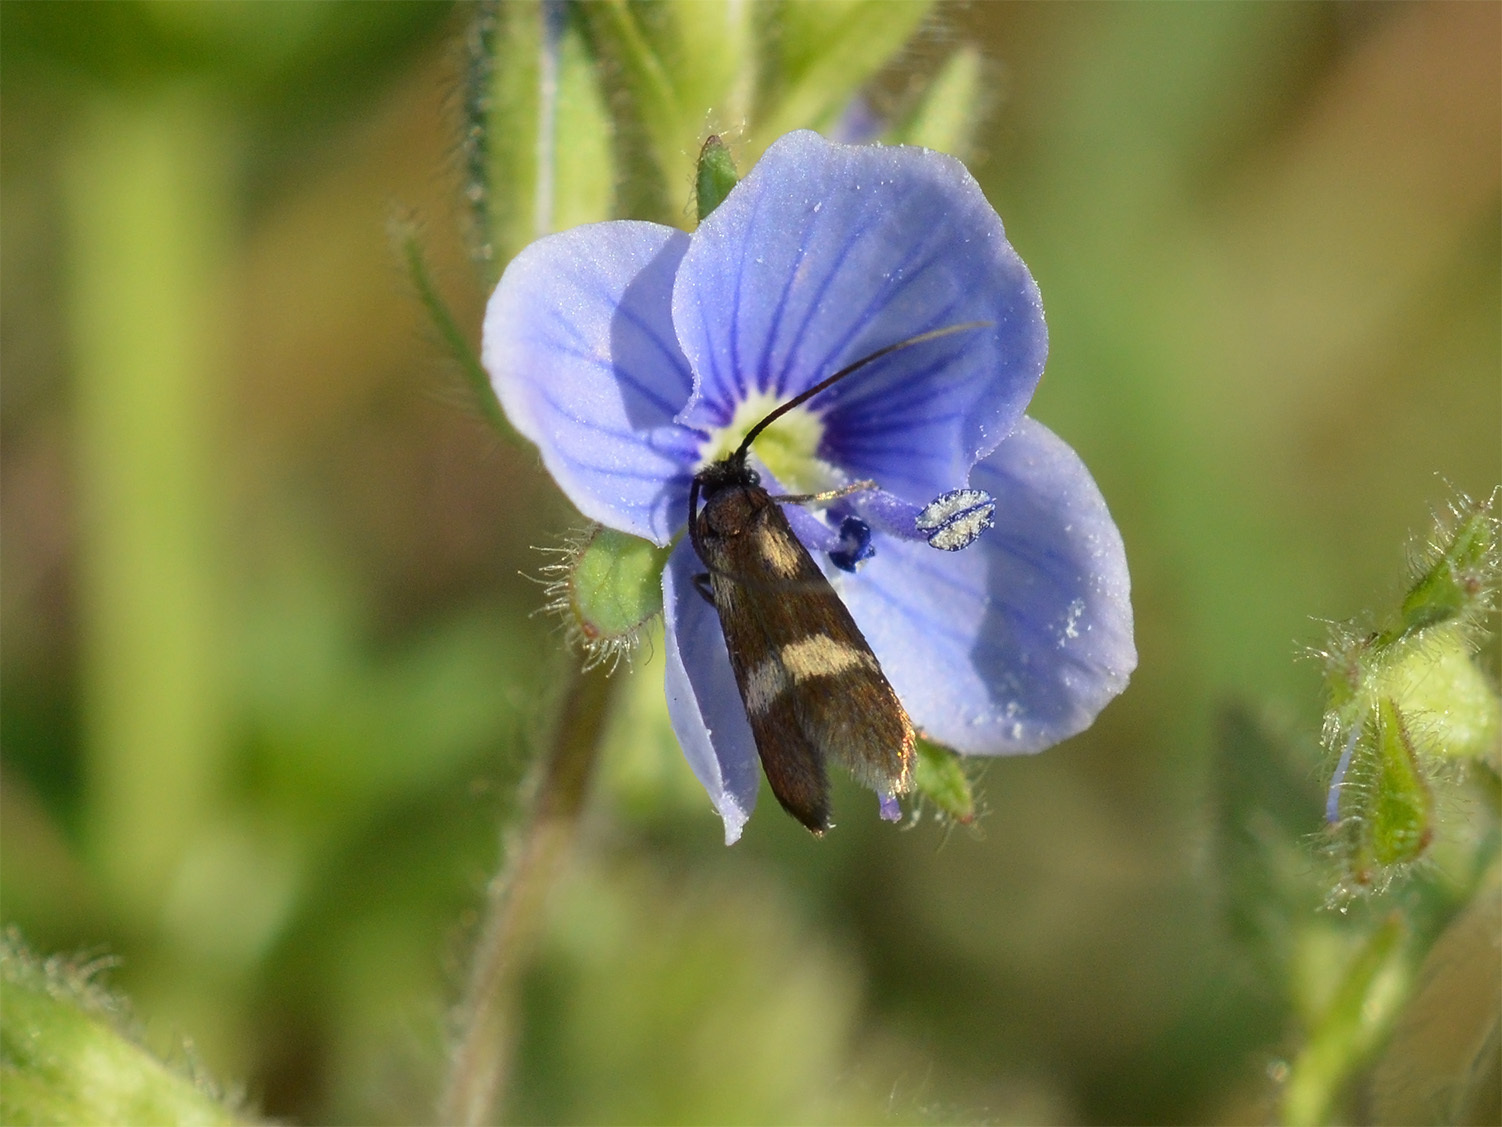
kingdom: Animalia
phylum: Arthropoda
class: Insecta
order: Lepidoptera
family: Adelidae
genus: Cauchas
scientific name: Cauchas fibulella
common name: Little long-horn
